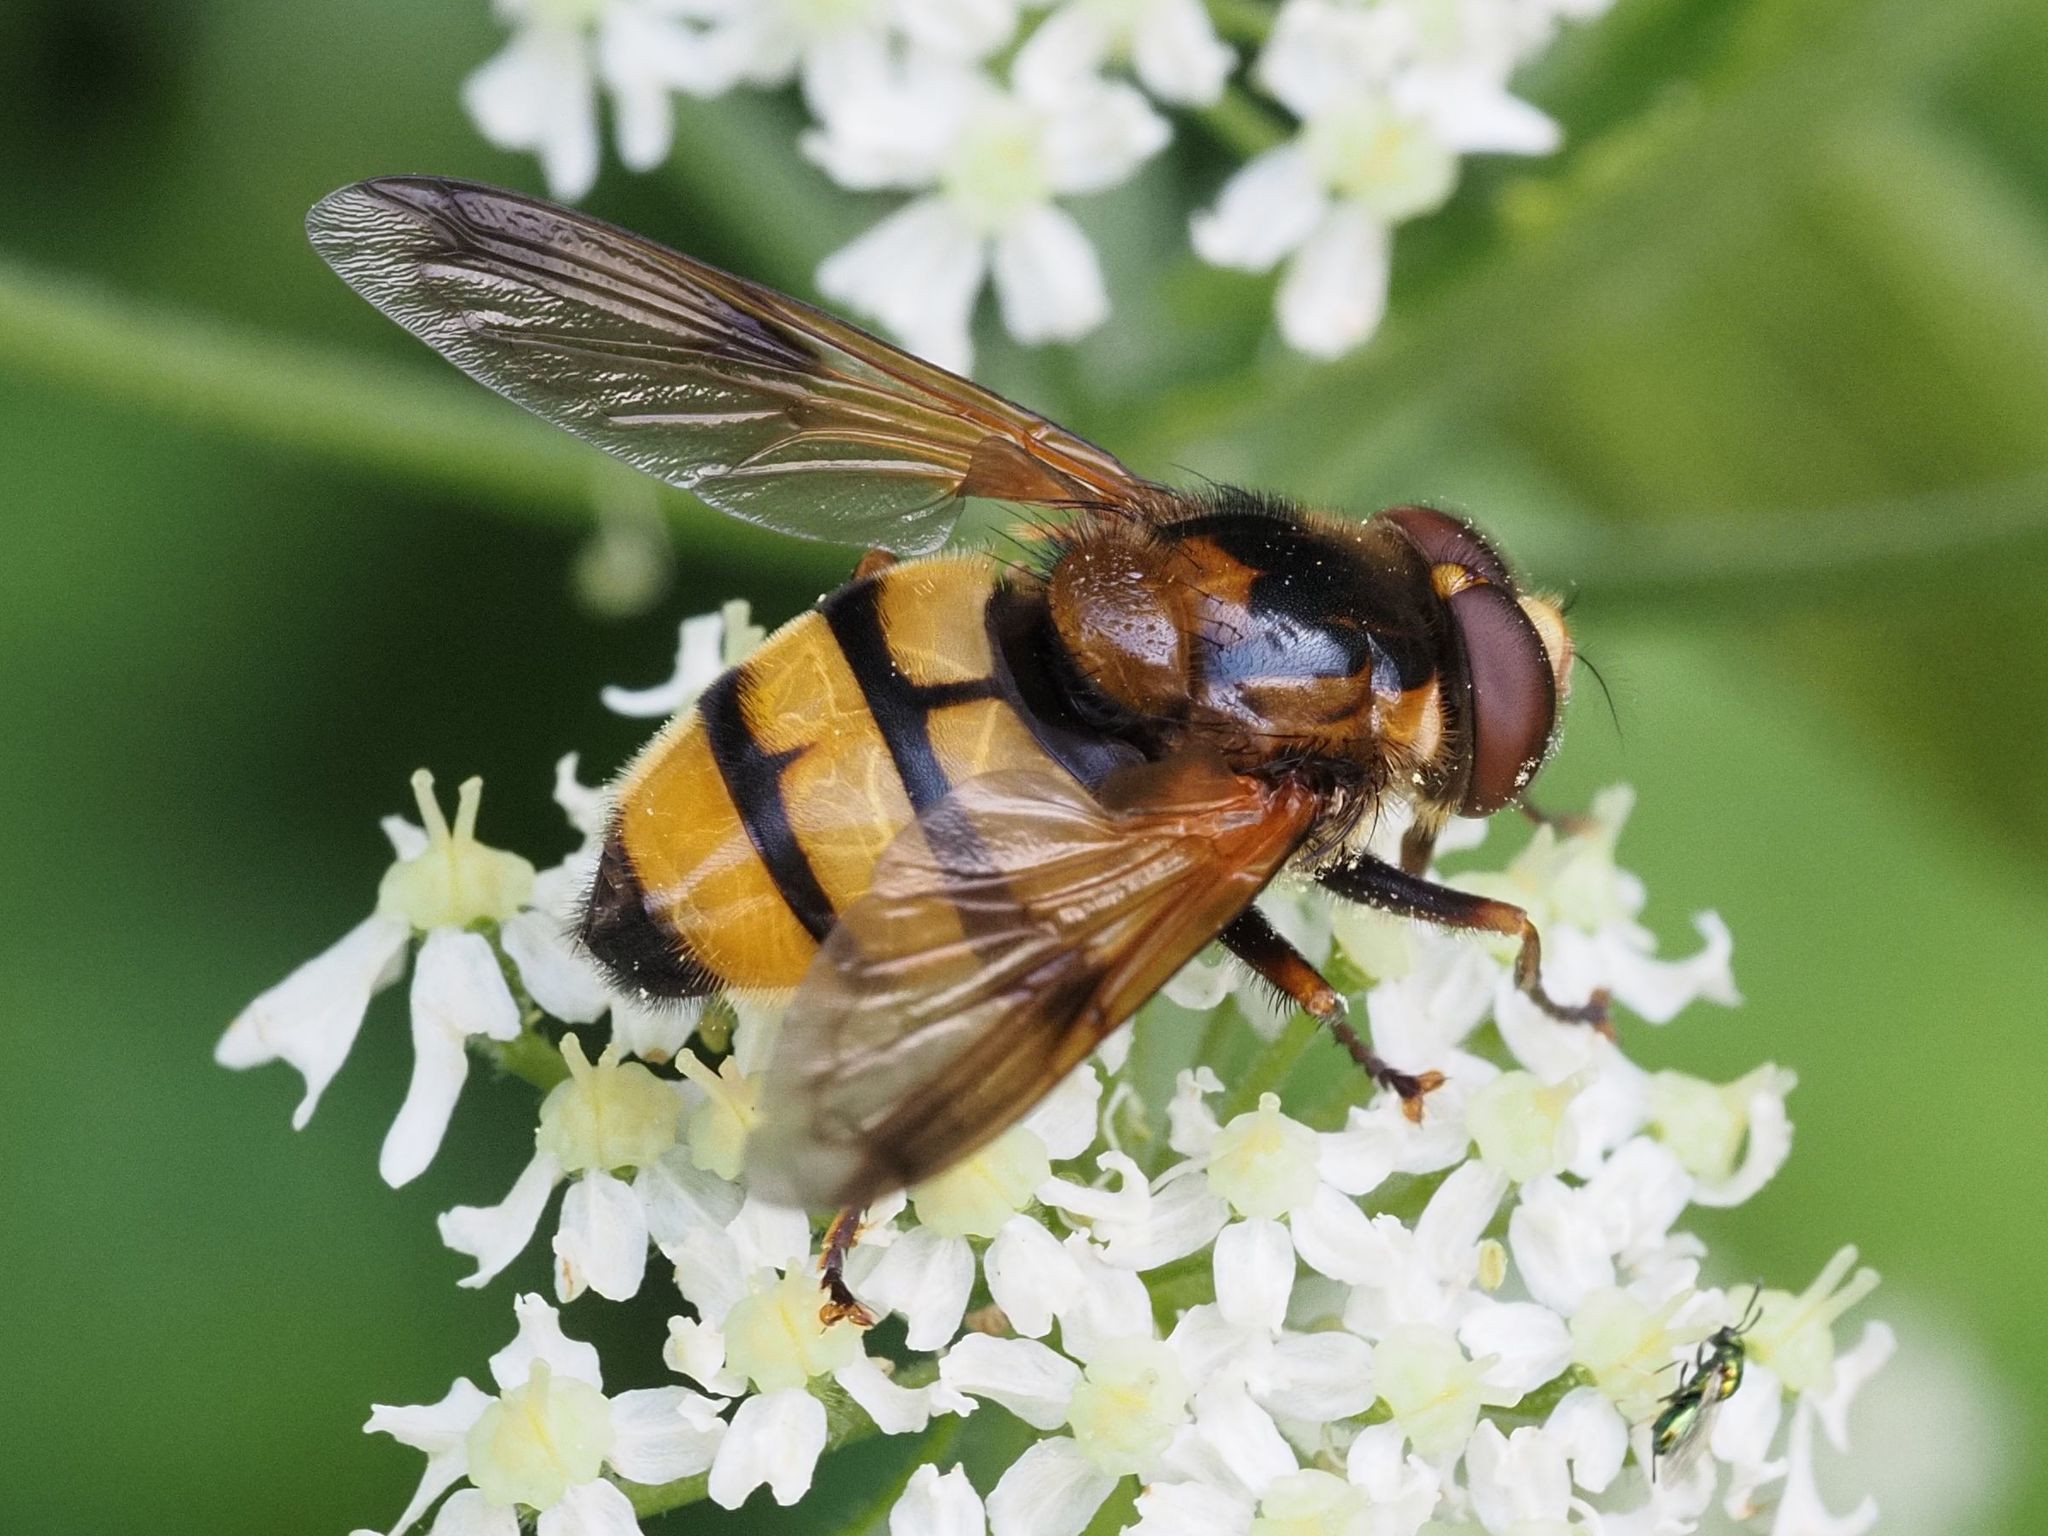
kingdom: Animalia
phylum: Arthropoda
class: Insecta
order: Diptera
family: Syrphidae
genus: Volucella
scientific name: Volucella inanis
